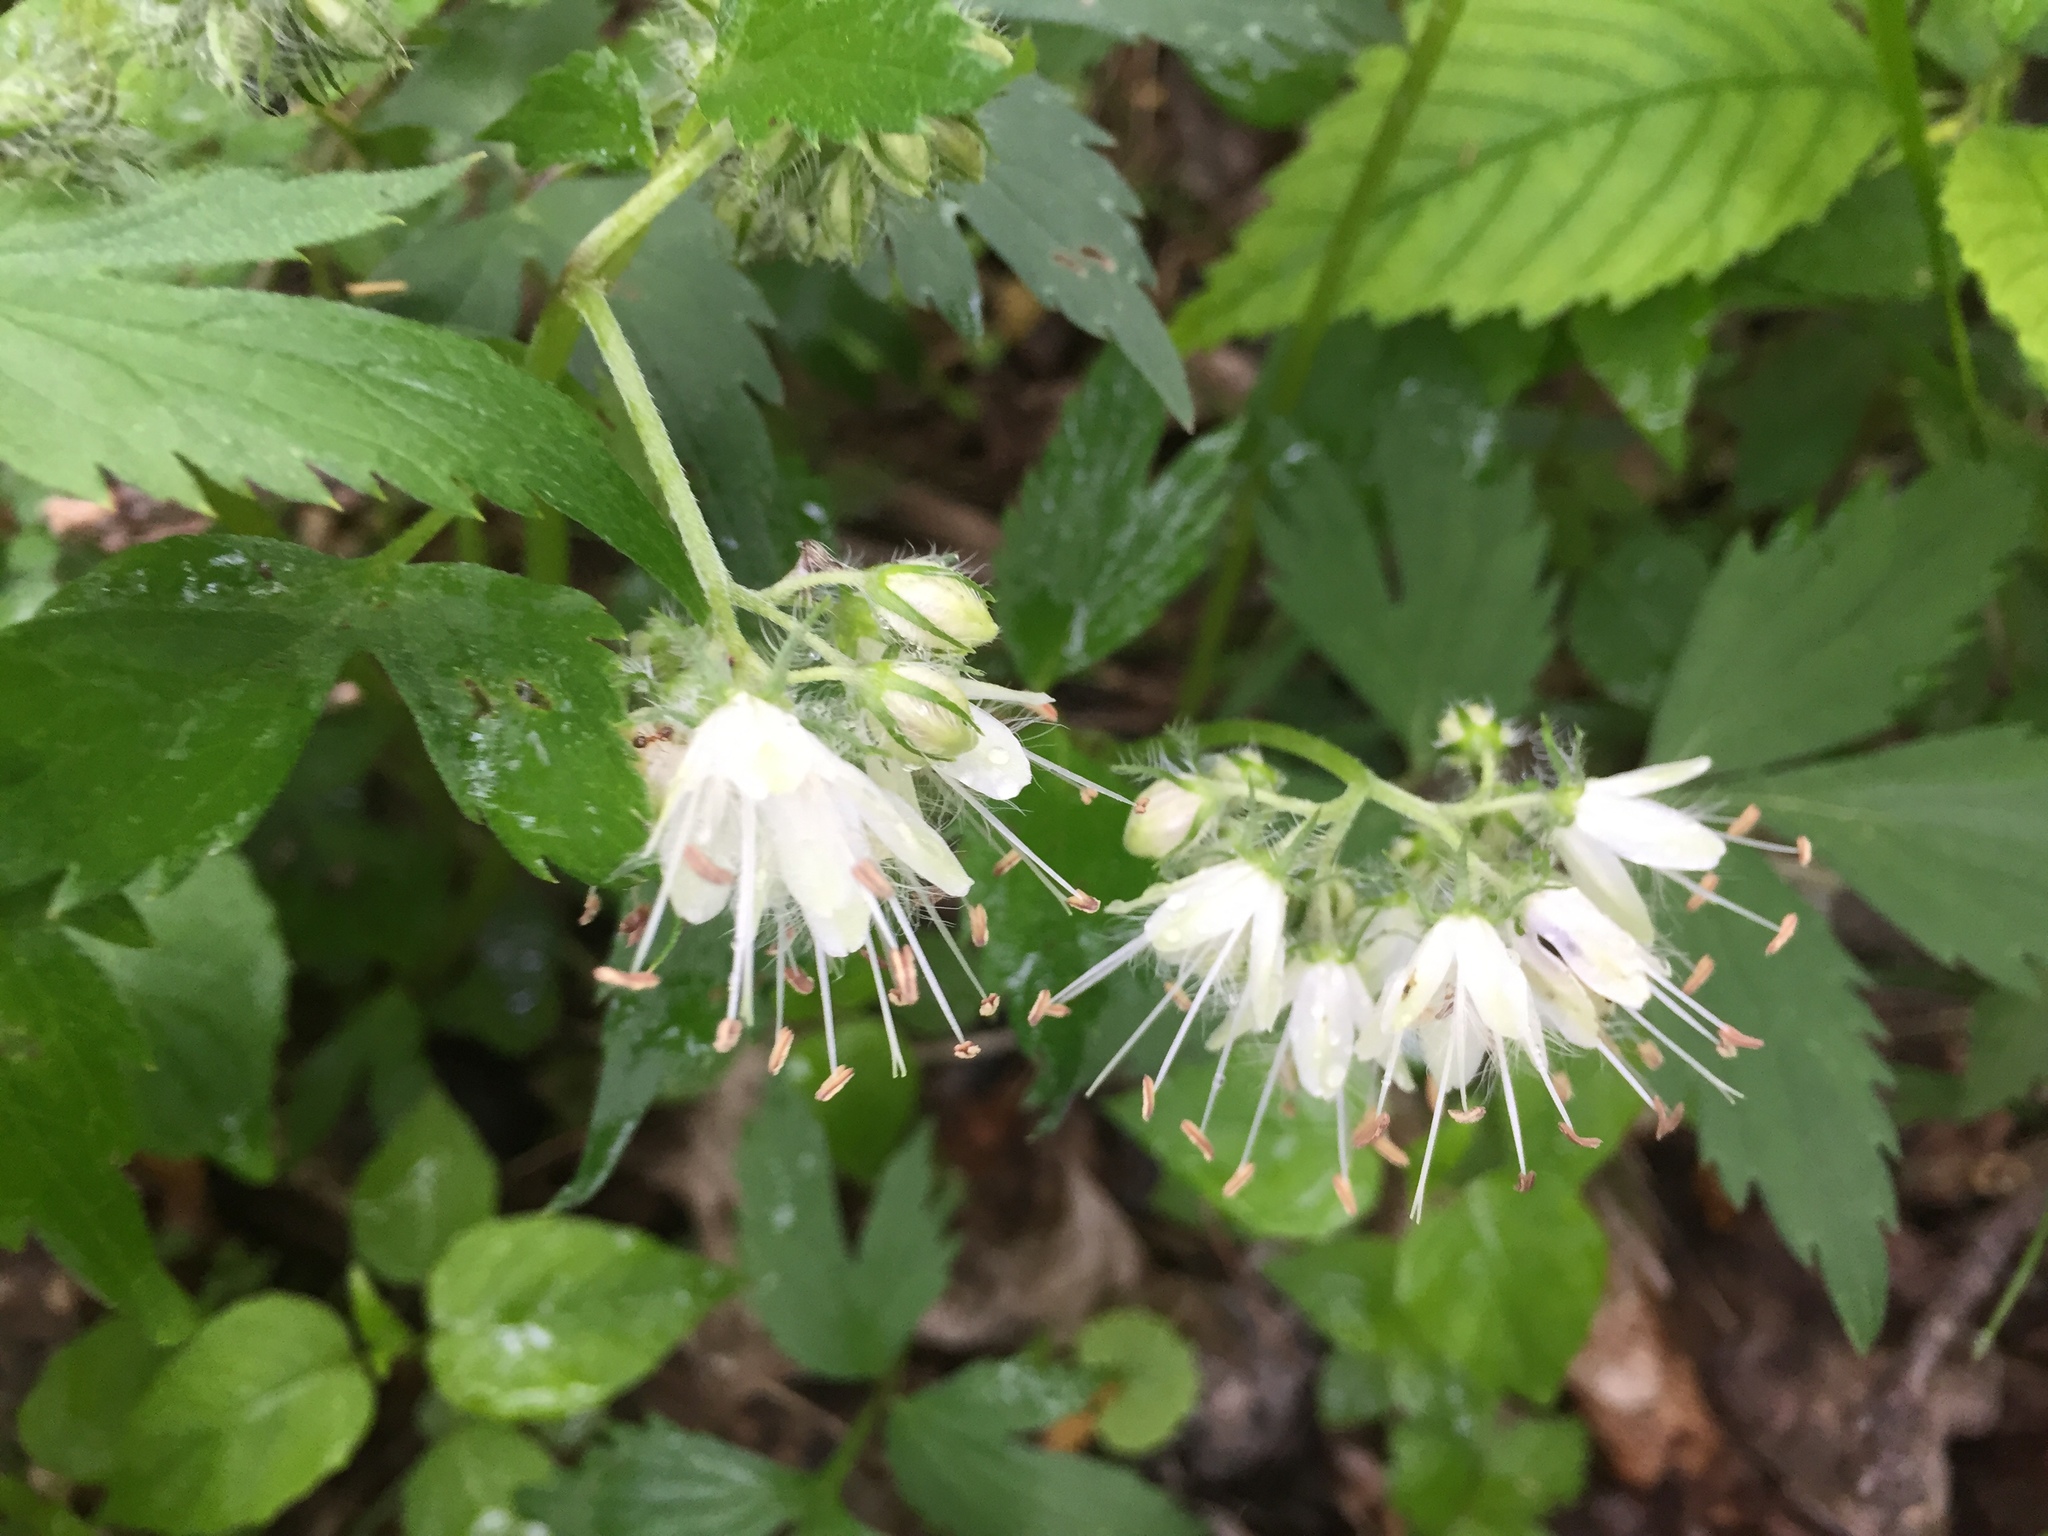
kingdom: Plantae
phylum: Tracheophyta
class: Magnoliopsida
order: Boraginales
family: Hydrophyllaceae
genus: Hydrophyllum
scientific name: Hydrophyllum virginianum
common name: Virginia waterleaf
